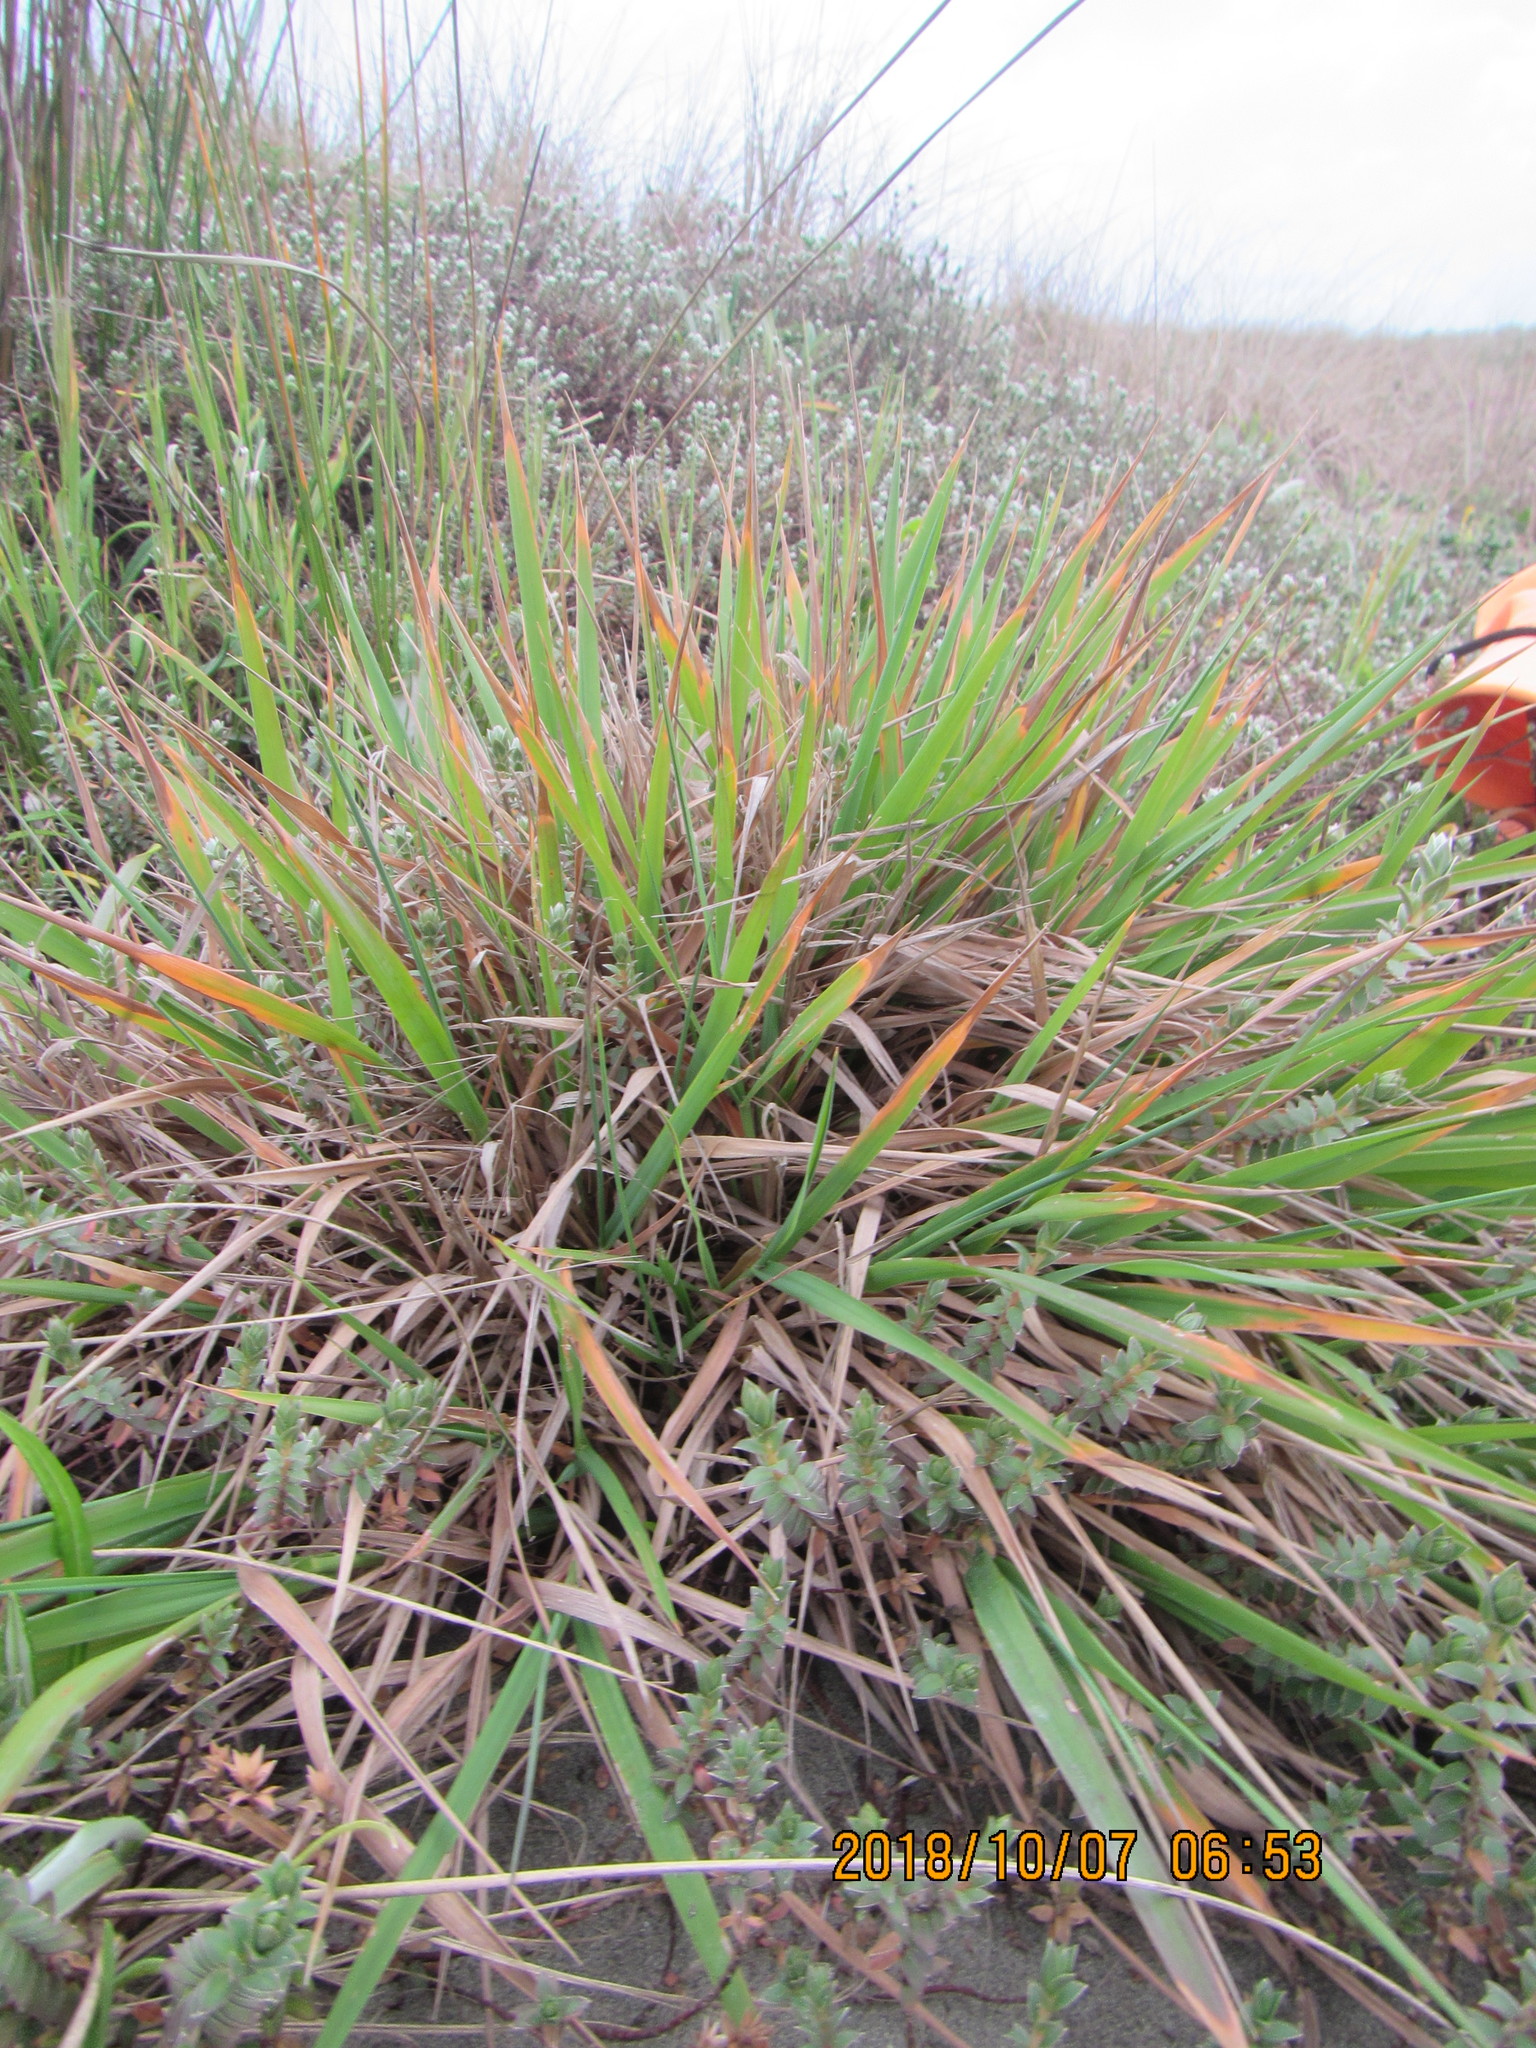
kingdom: Plantae
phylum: Tracheophyta
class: Liliopsida
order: Poales
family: Poaceae
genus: Lachnagrostis
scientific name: Lachnagrostis billardierei
